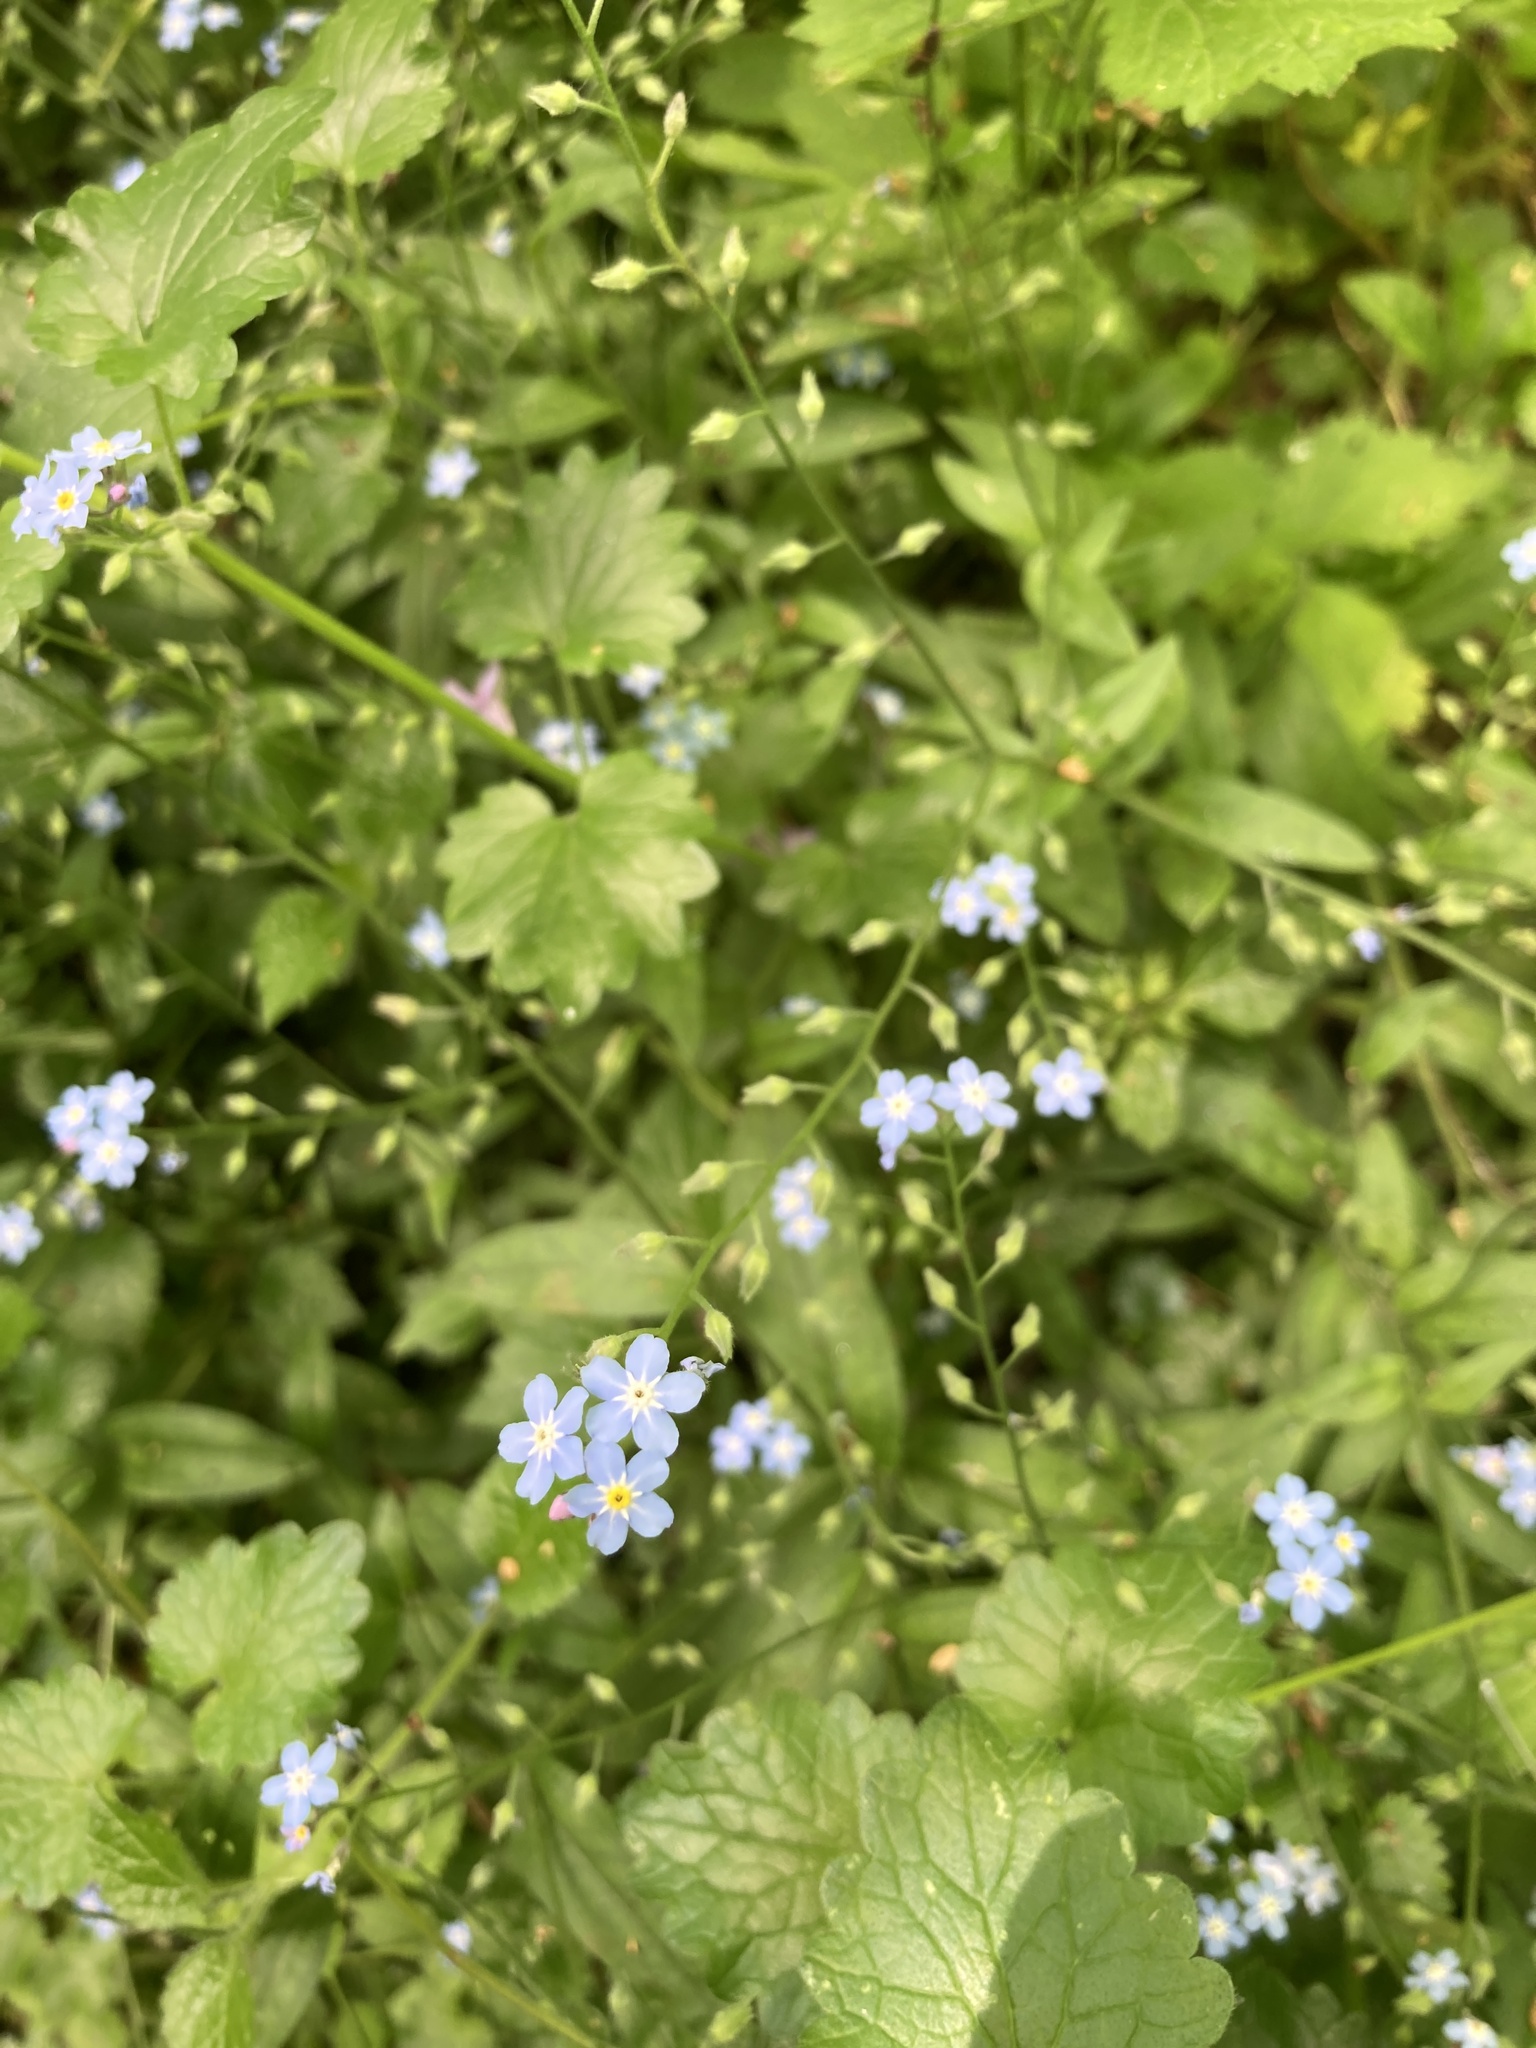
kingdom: Plantae
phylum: Tracheophyta
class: Magnoliopsida
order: Boraginales
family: Boraginaceae
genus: Myosotis
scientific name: Myosotis sylvatica
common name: Wood forget-me-not
